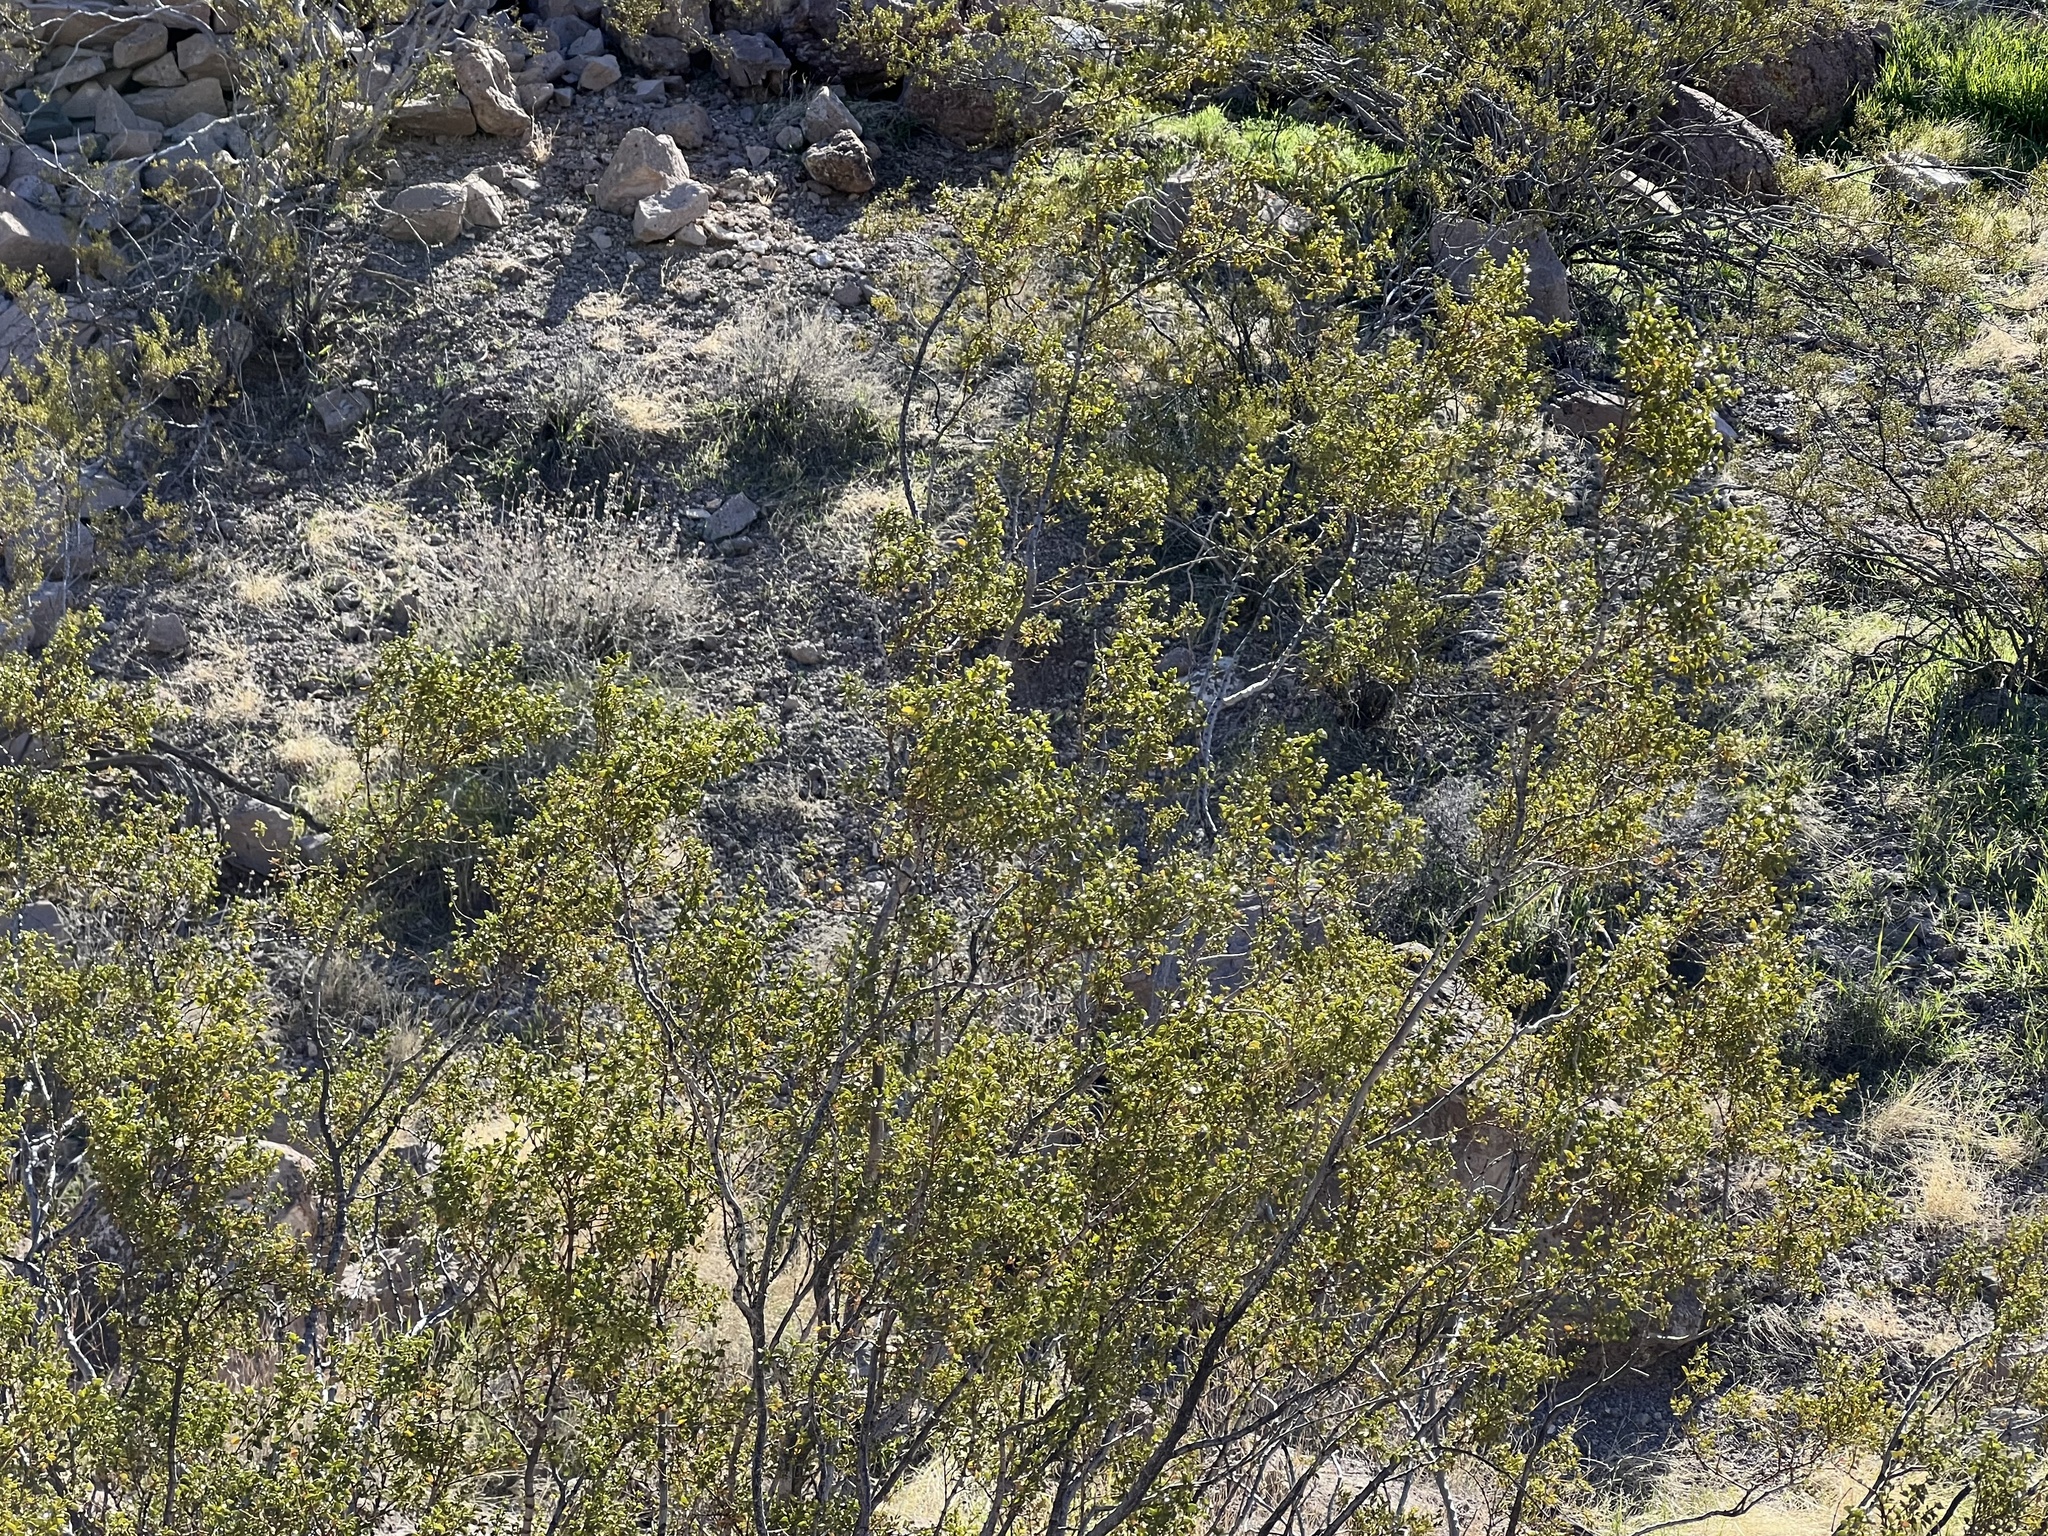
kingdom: Plantae
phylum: Tracheophyta
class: Magnoliopsida
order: Zygophyllales
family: Zygophyllaceae
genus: Larrea
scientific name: Larrea tridentata
